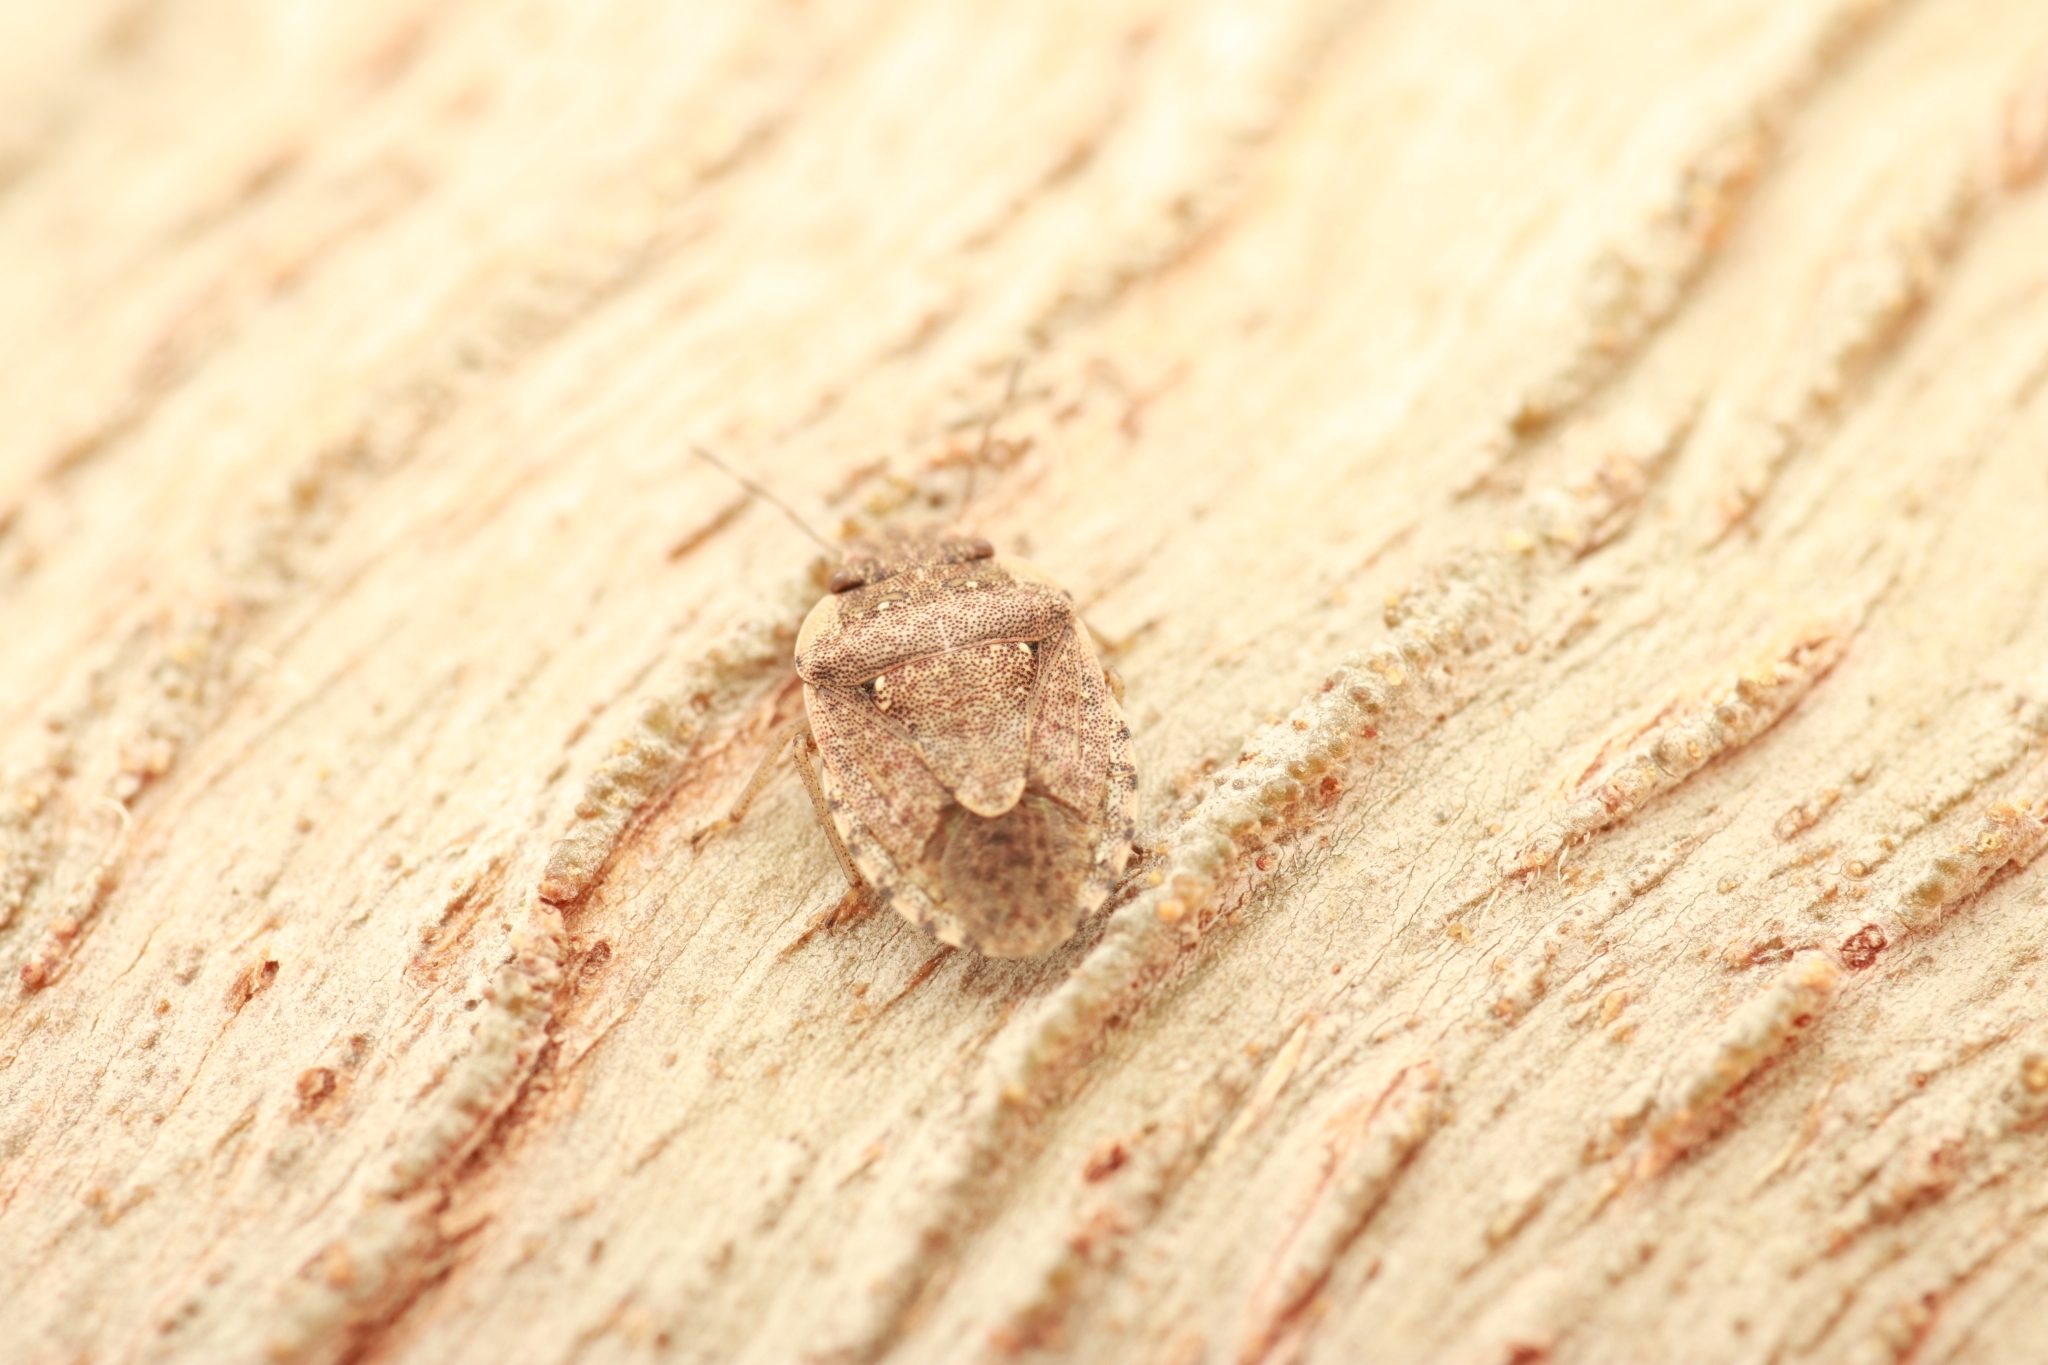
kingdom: Animalia
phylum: Arthropoda
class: Insecta
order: Hemiptera
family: Pentatomidae
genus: Sciocoris
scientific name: Sciocoris sideritidis
